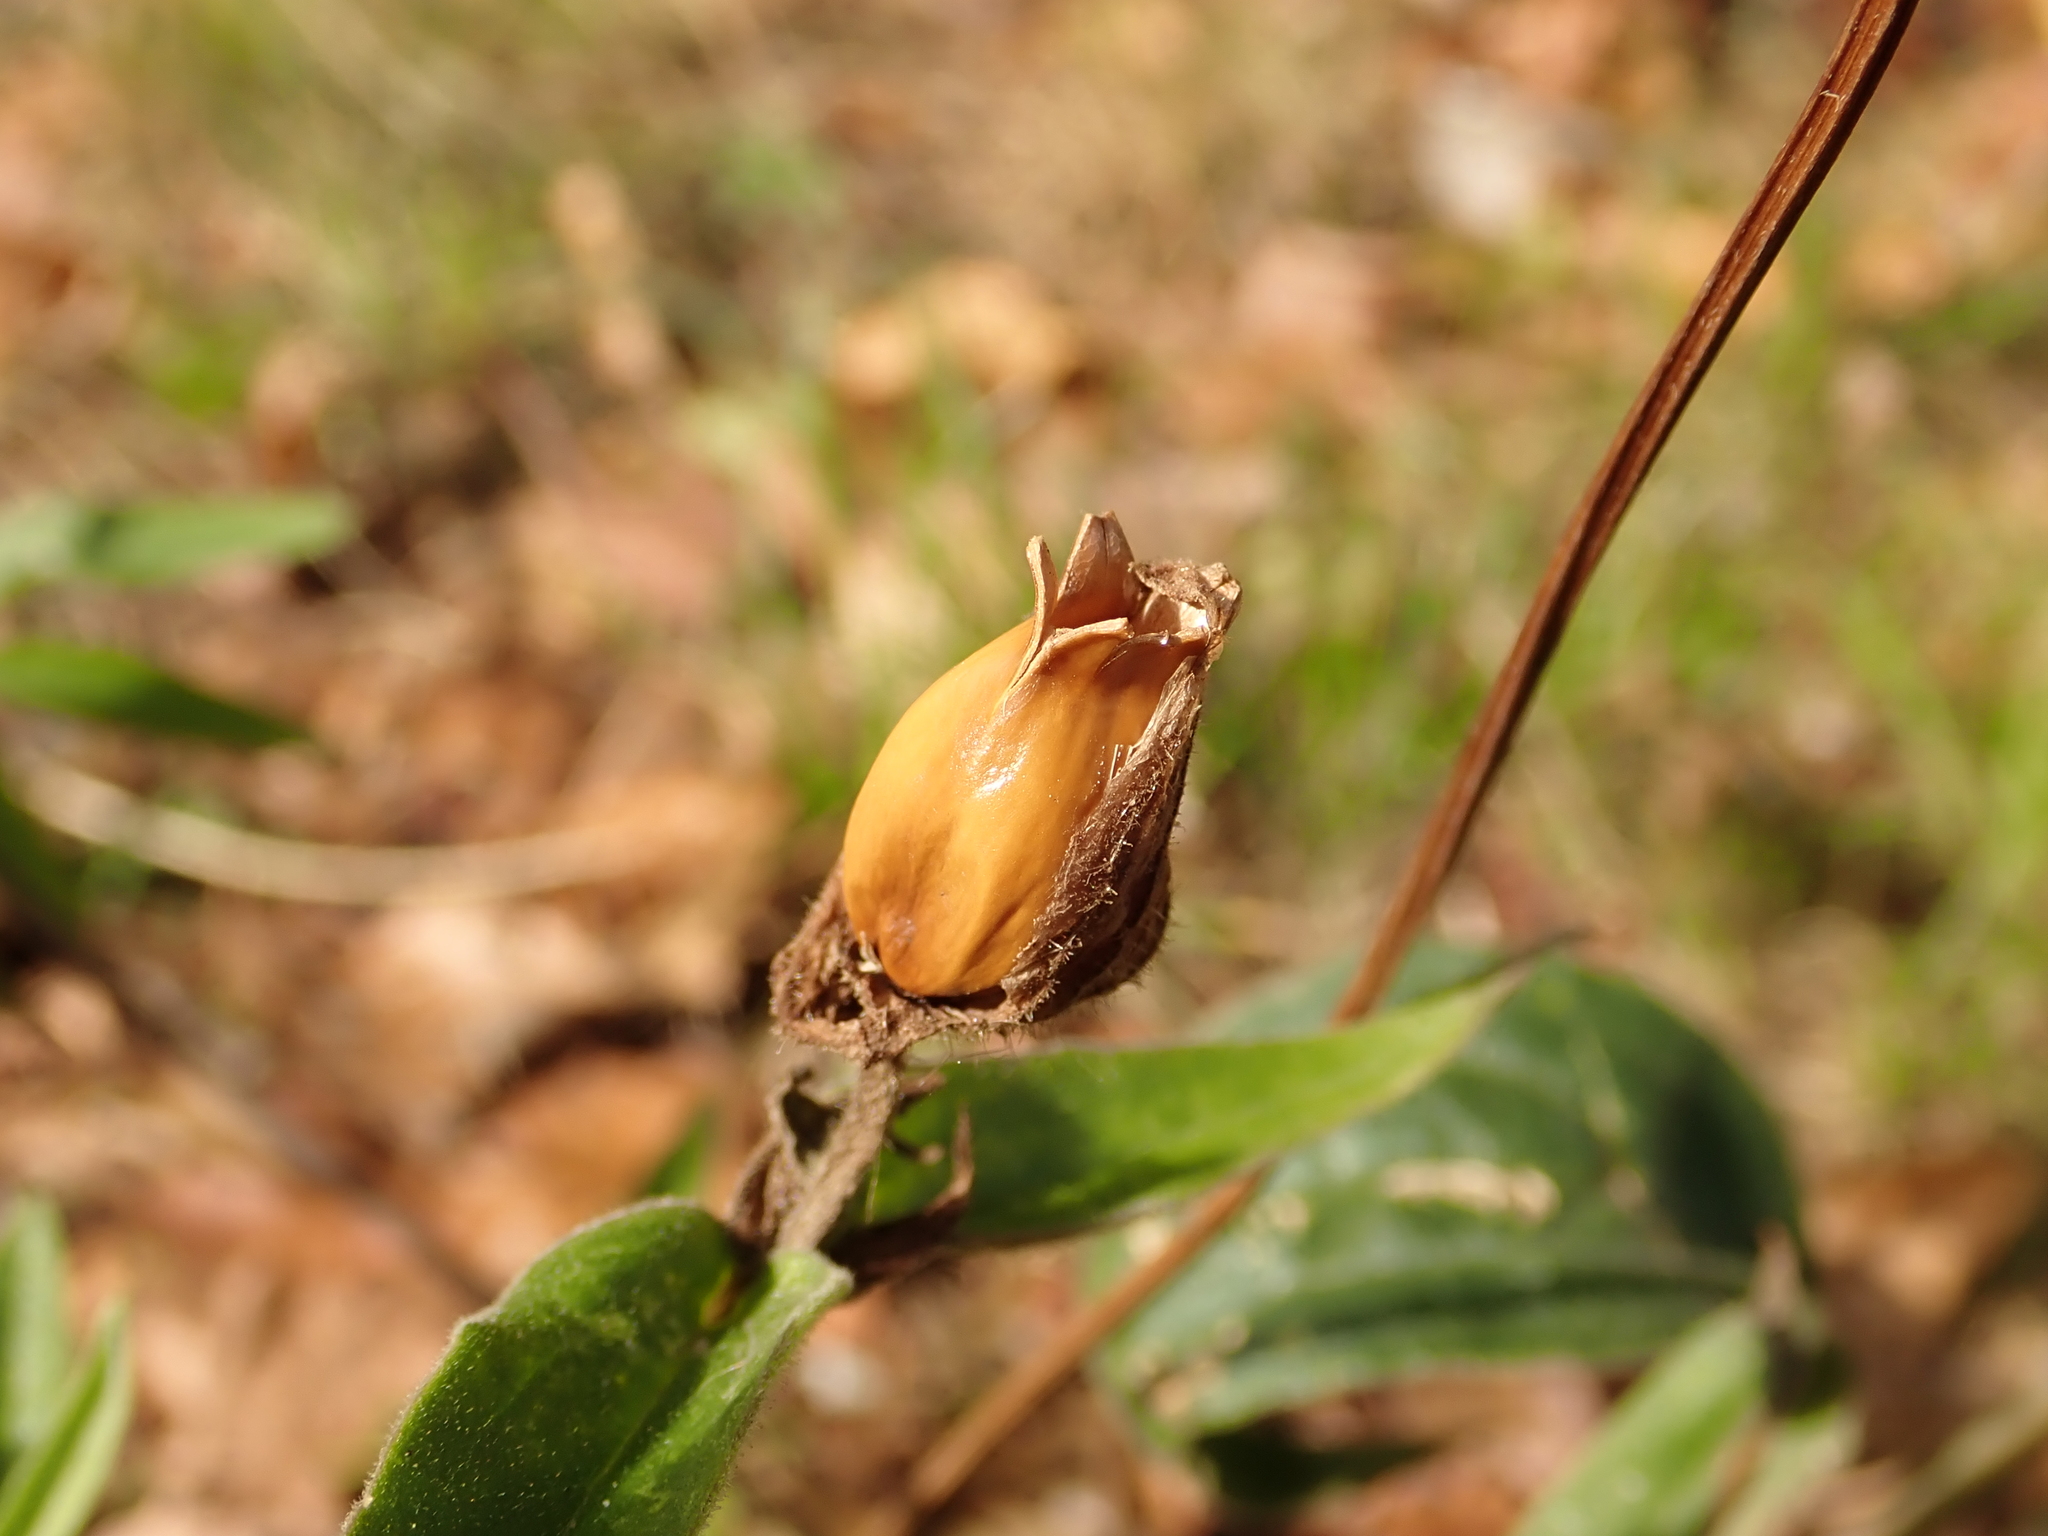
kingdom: Plantae
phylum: Tracheophyta
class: Magnoliopsida
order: Caryophyllales
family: Caryophyllaceae
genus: Silene
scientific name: Silene latifolia
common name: White campion
